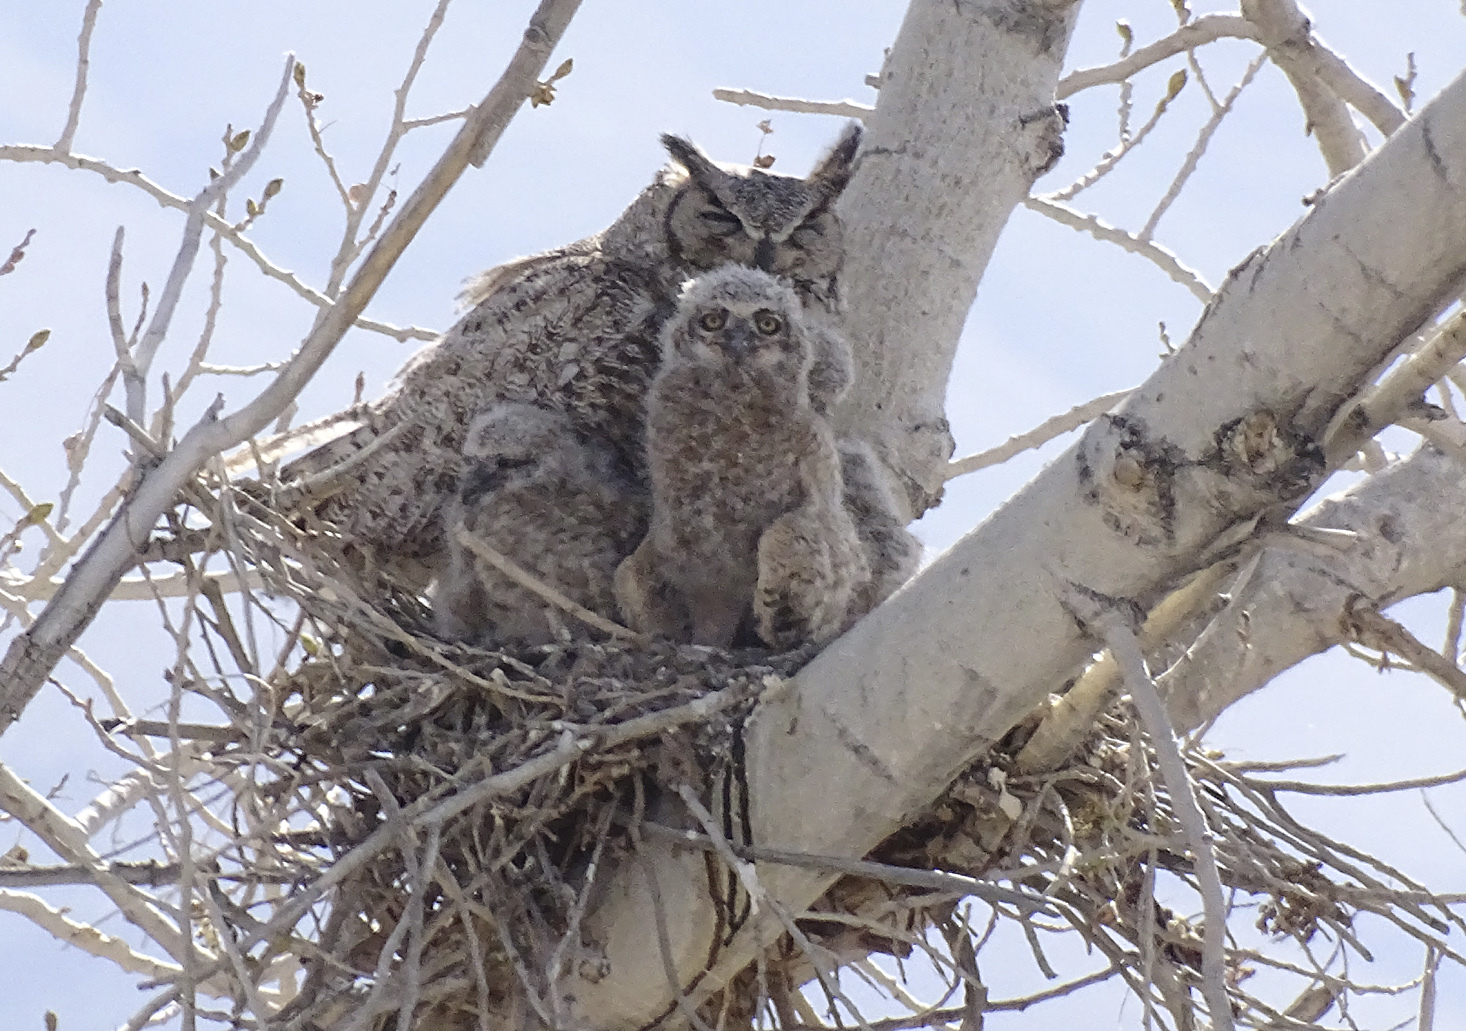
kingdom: Animalia
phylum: Chordata
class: Aves
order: Strigiformes
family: Strigidae
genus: Bubo
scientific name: Bubo virginianus
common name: Great horned owl
